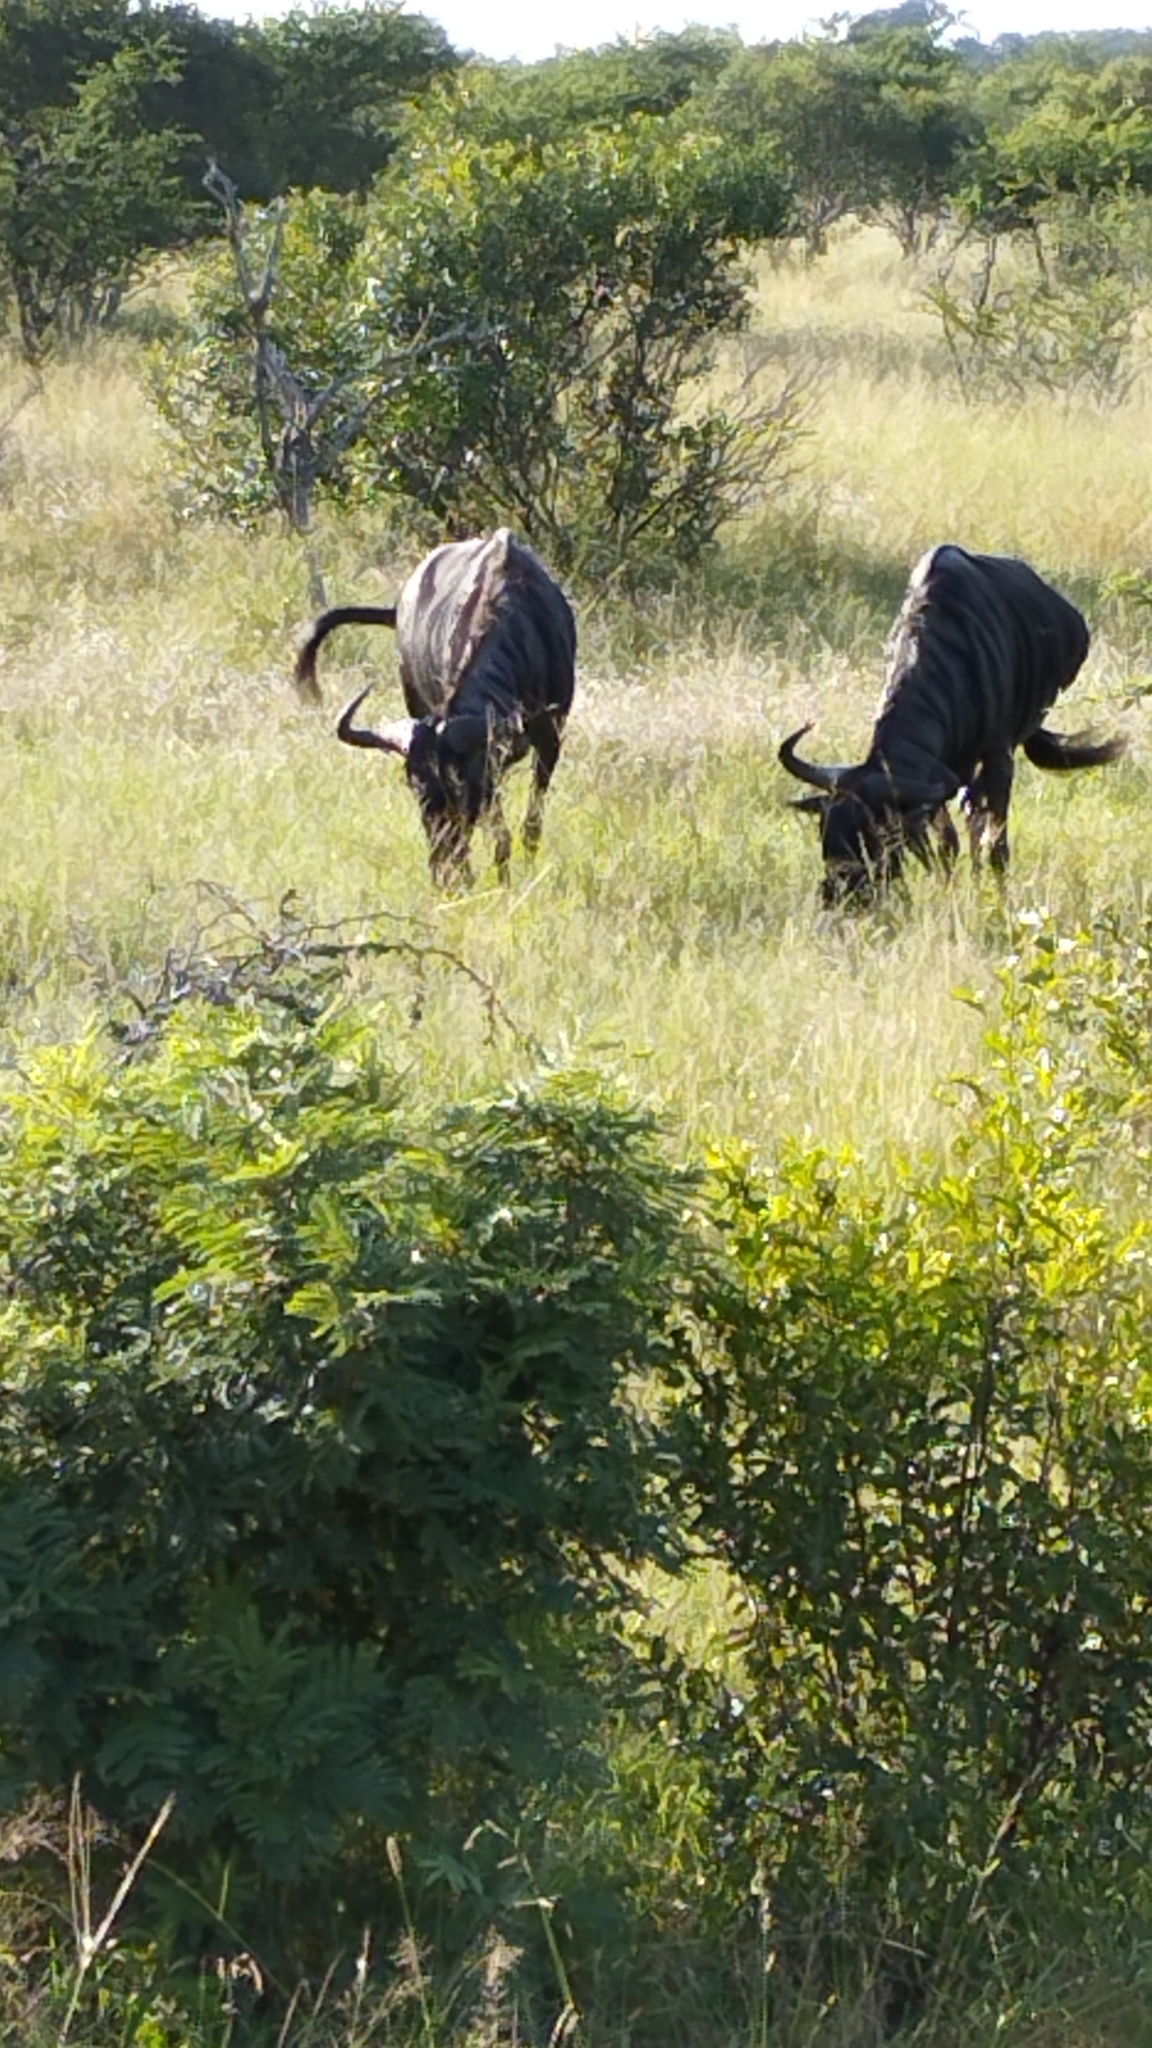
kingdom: Animalia
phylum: Chordata
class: Mammalia
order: Artiodactyla
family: Bovidae
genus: Connochaetes
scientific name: Connochaetes taurinus
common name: Blue wildebeest
